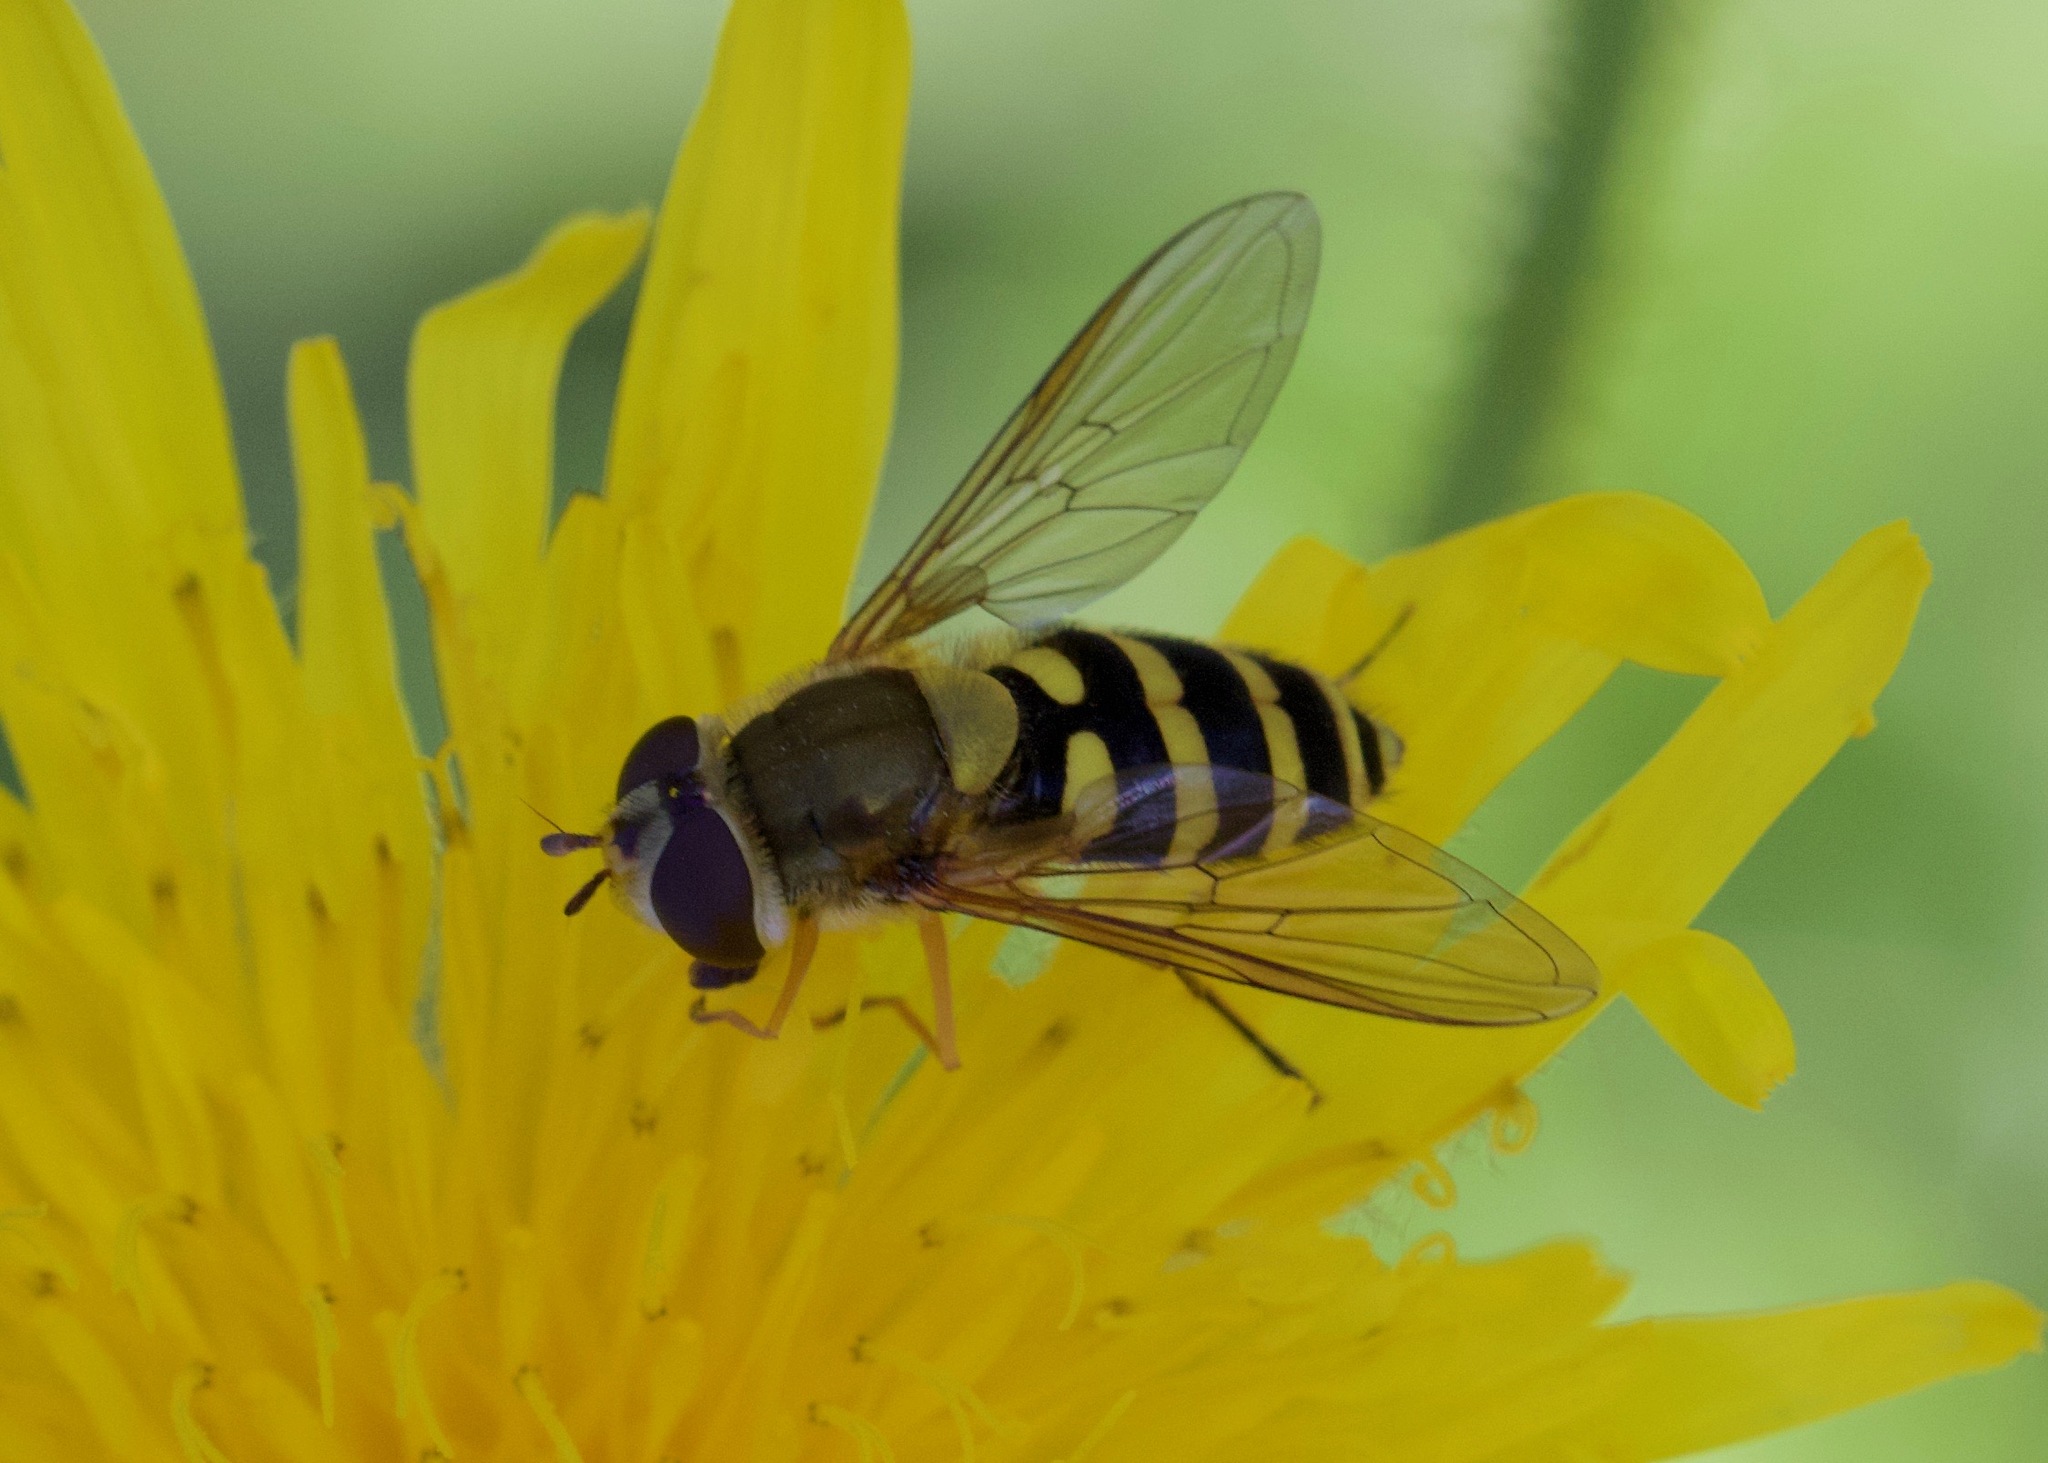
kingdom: Animalia
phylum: Arthropoda
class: Insecta
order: Diptera
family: Syrphidae
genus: Syrphus
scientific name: Syrphus ribesii
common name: Common flower fly
